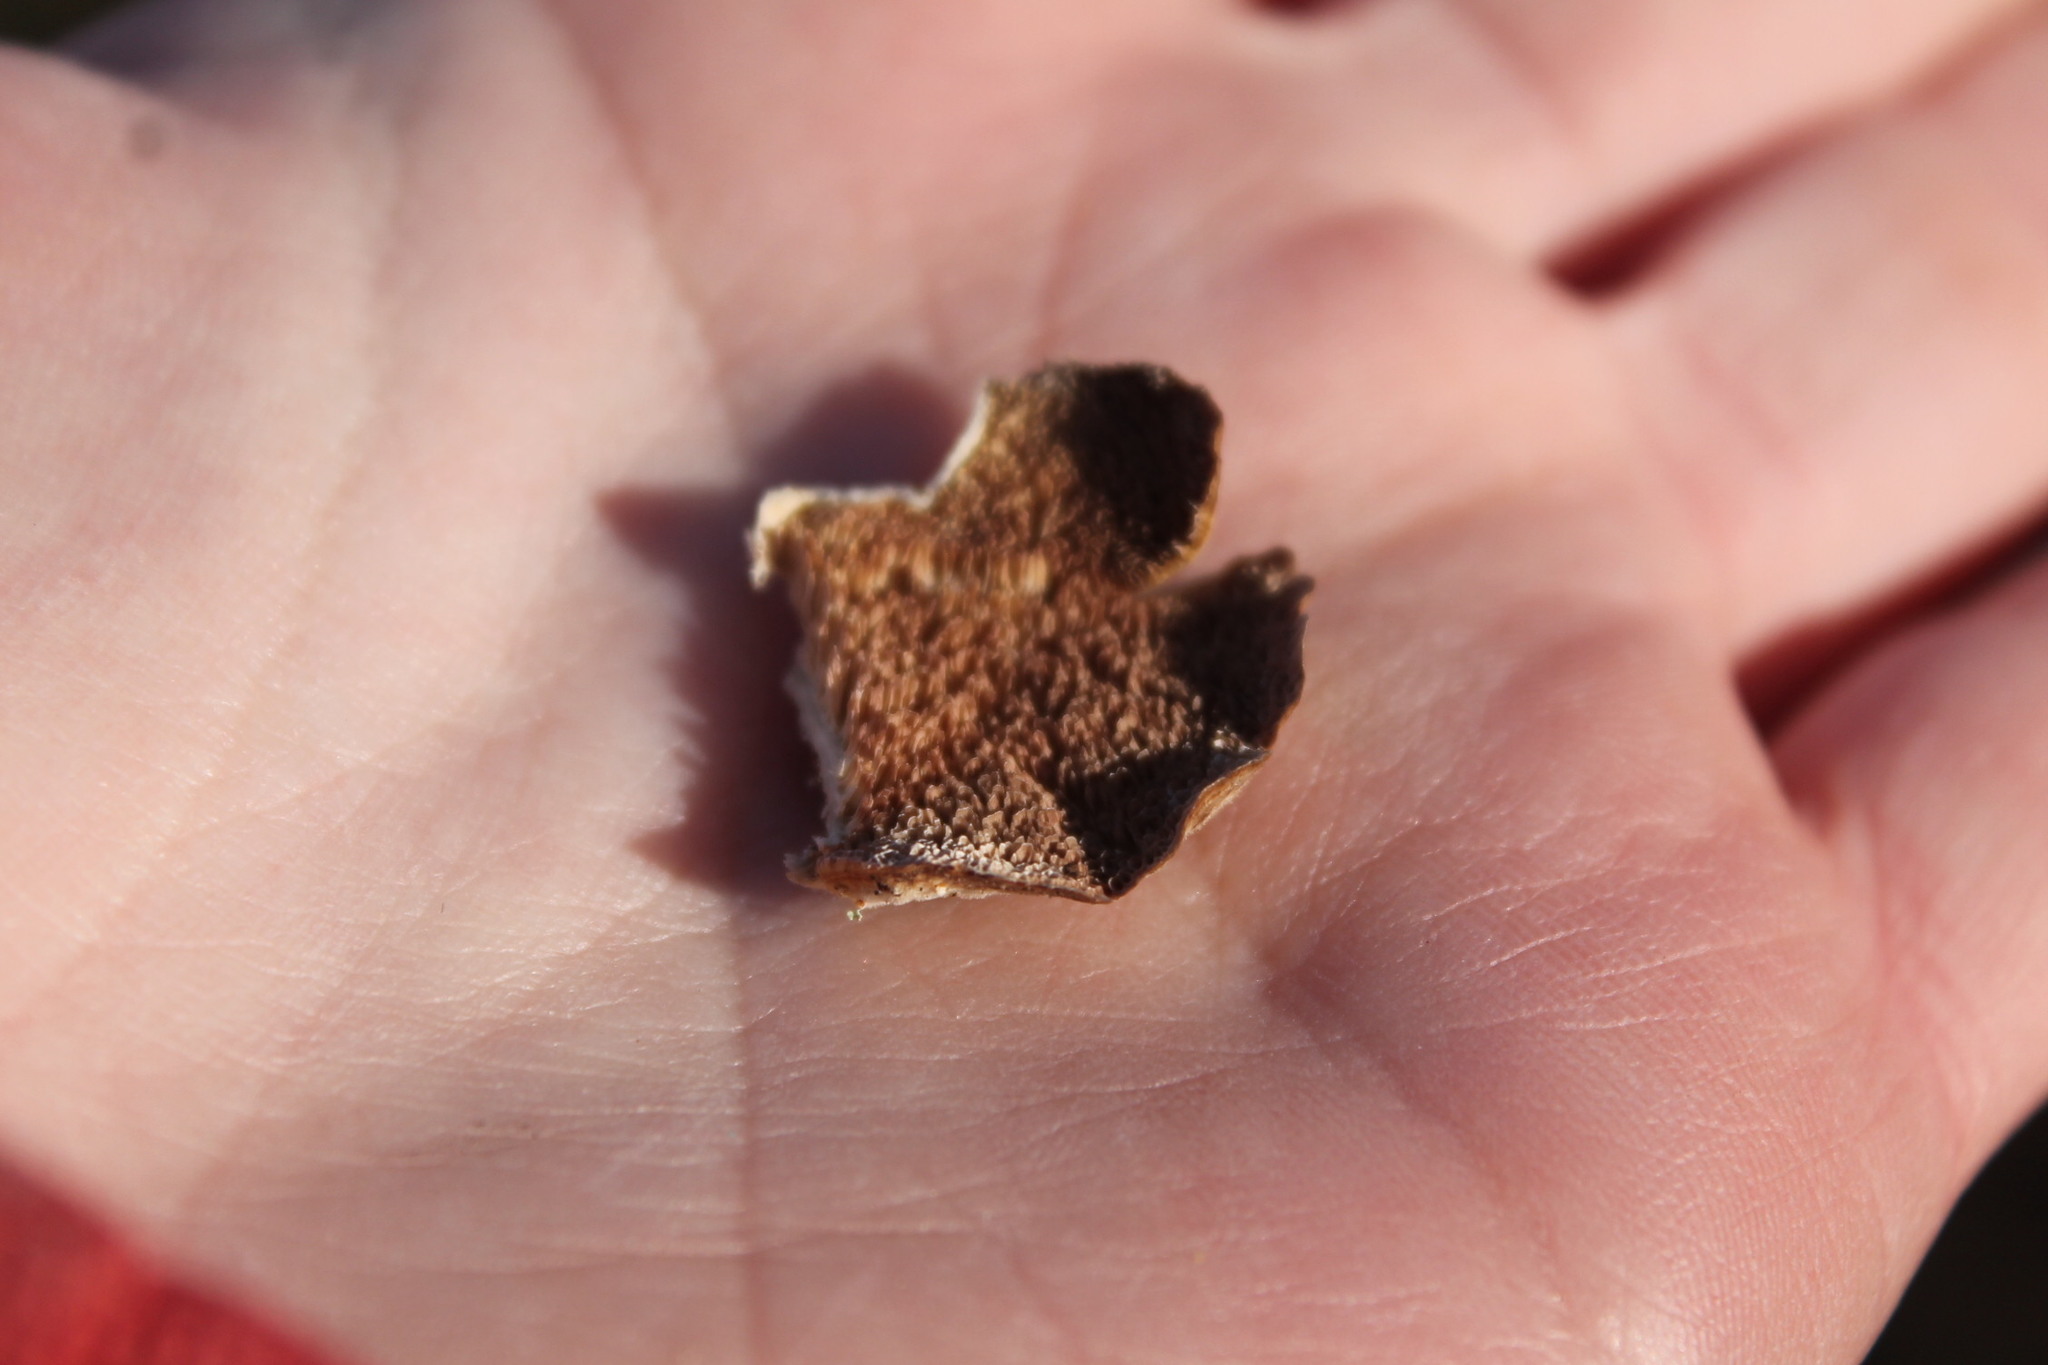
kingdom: Fungi
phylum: Basidiomycota
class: Agaricomycetes
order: Hymenochaetales
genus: Trichaptum
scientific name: Trichaptum biforme
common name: Violet-toothed polypore
